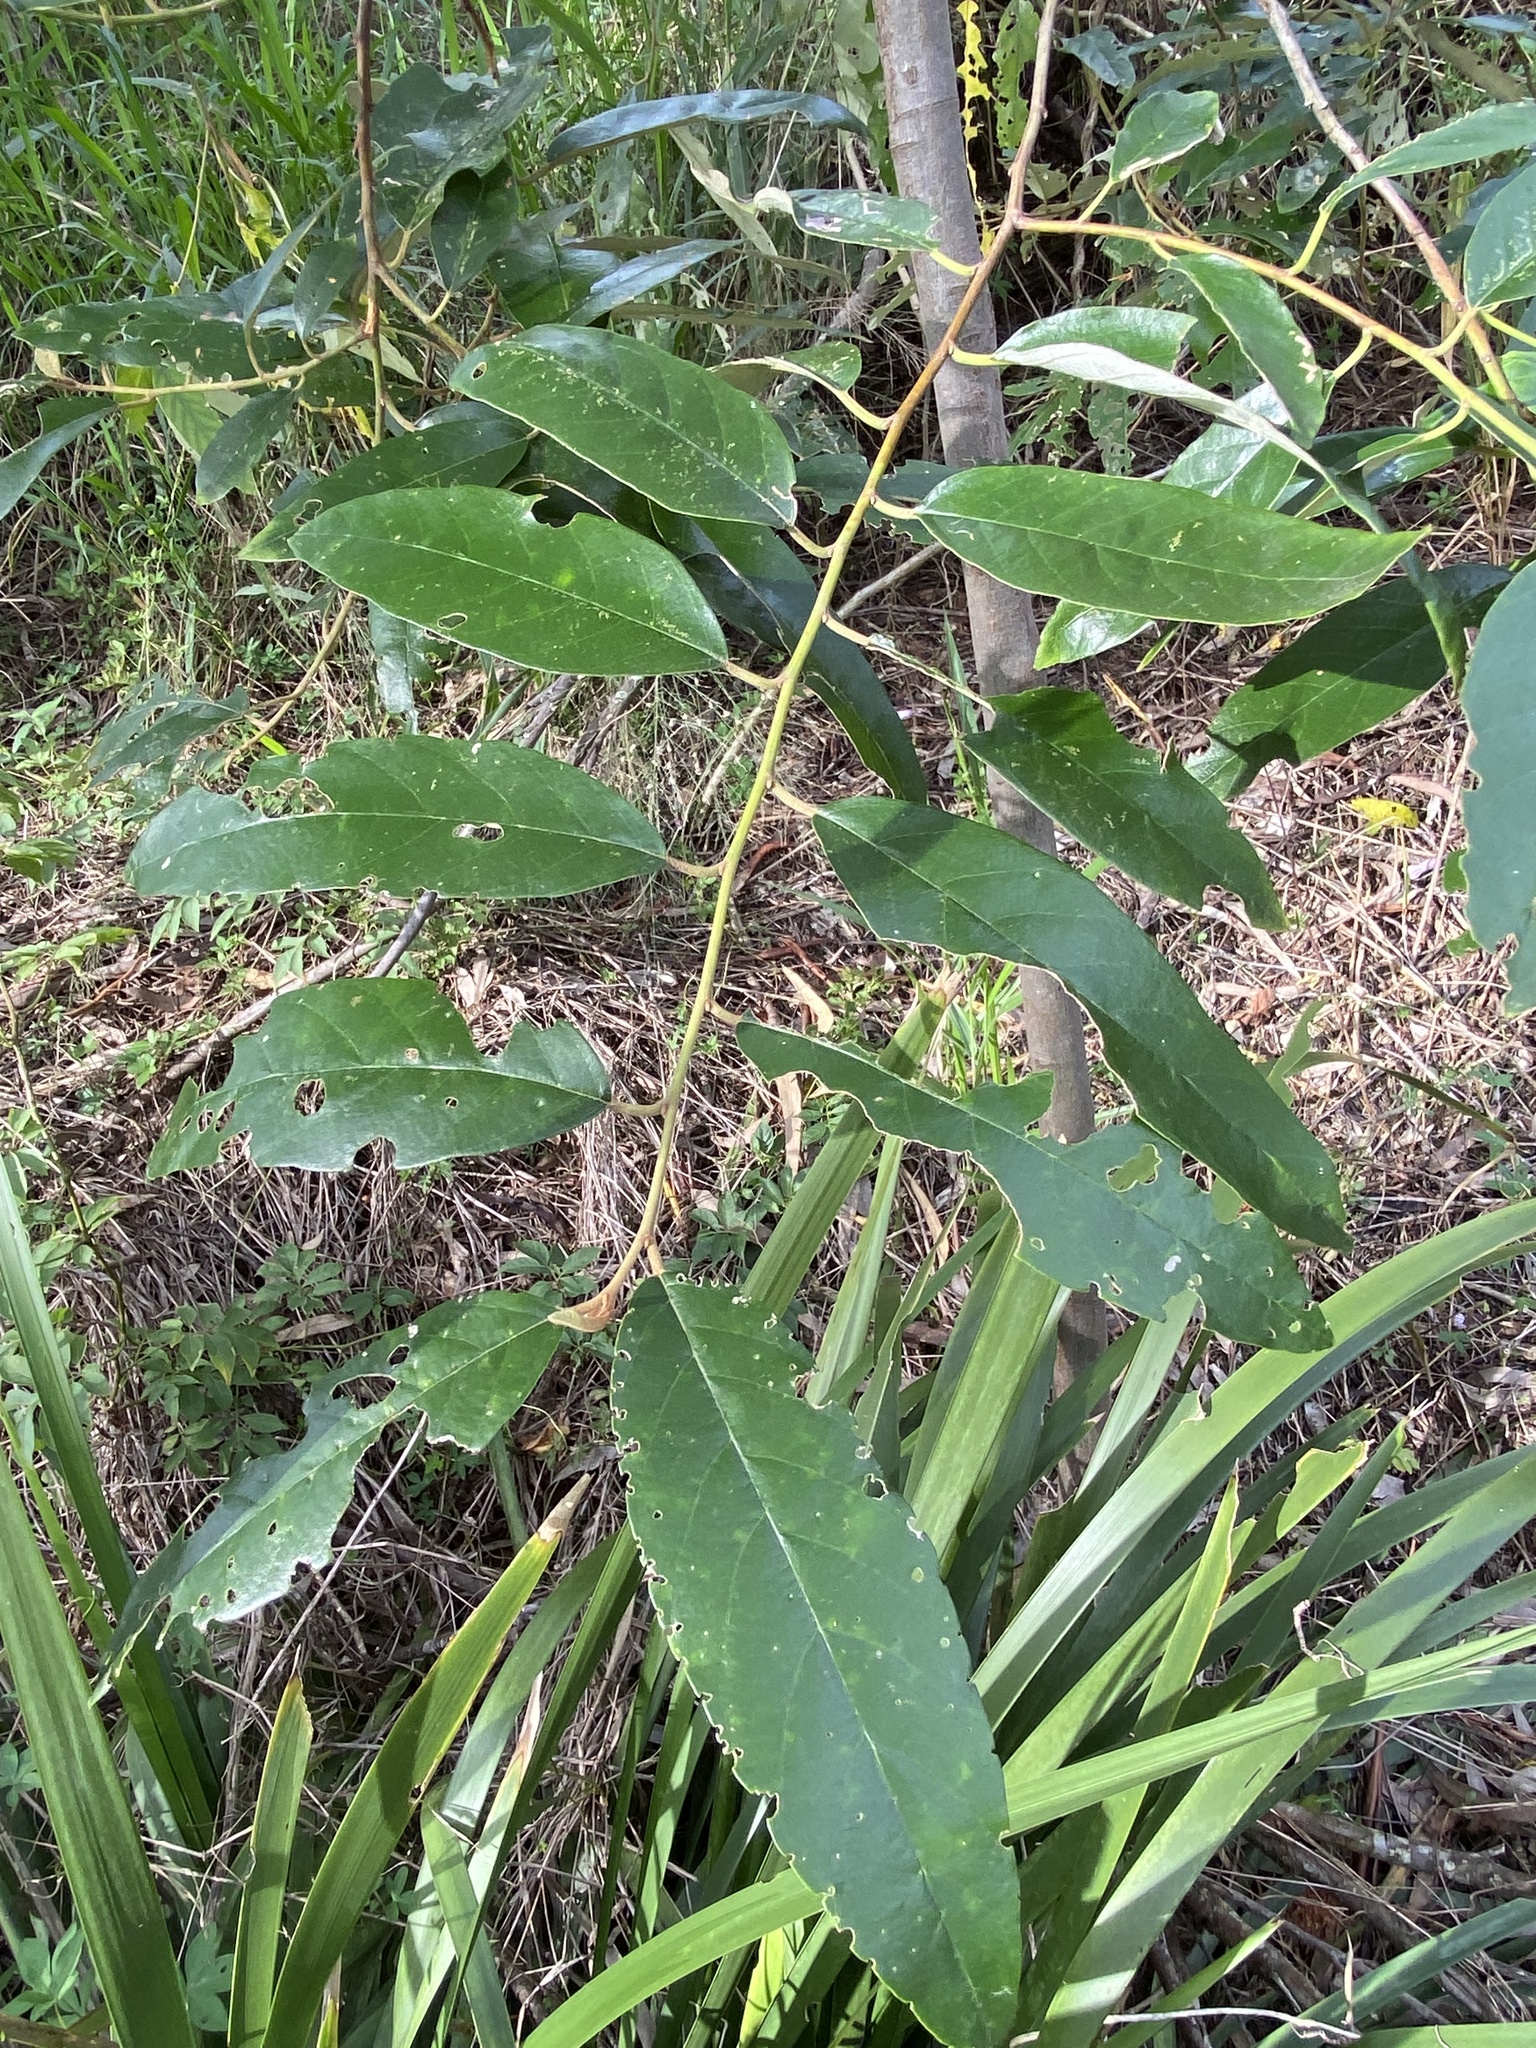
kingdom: Plantae
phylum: Tracheophyta
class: Magnoliopsida
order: Rosales
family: Rhamnaceae
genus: Alphitonia
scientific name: Alphitonia excelsa
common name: Red ash
